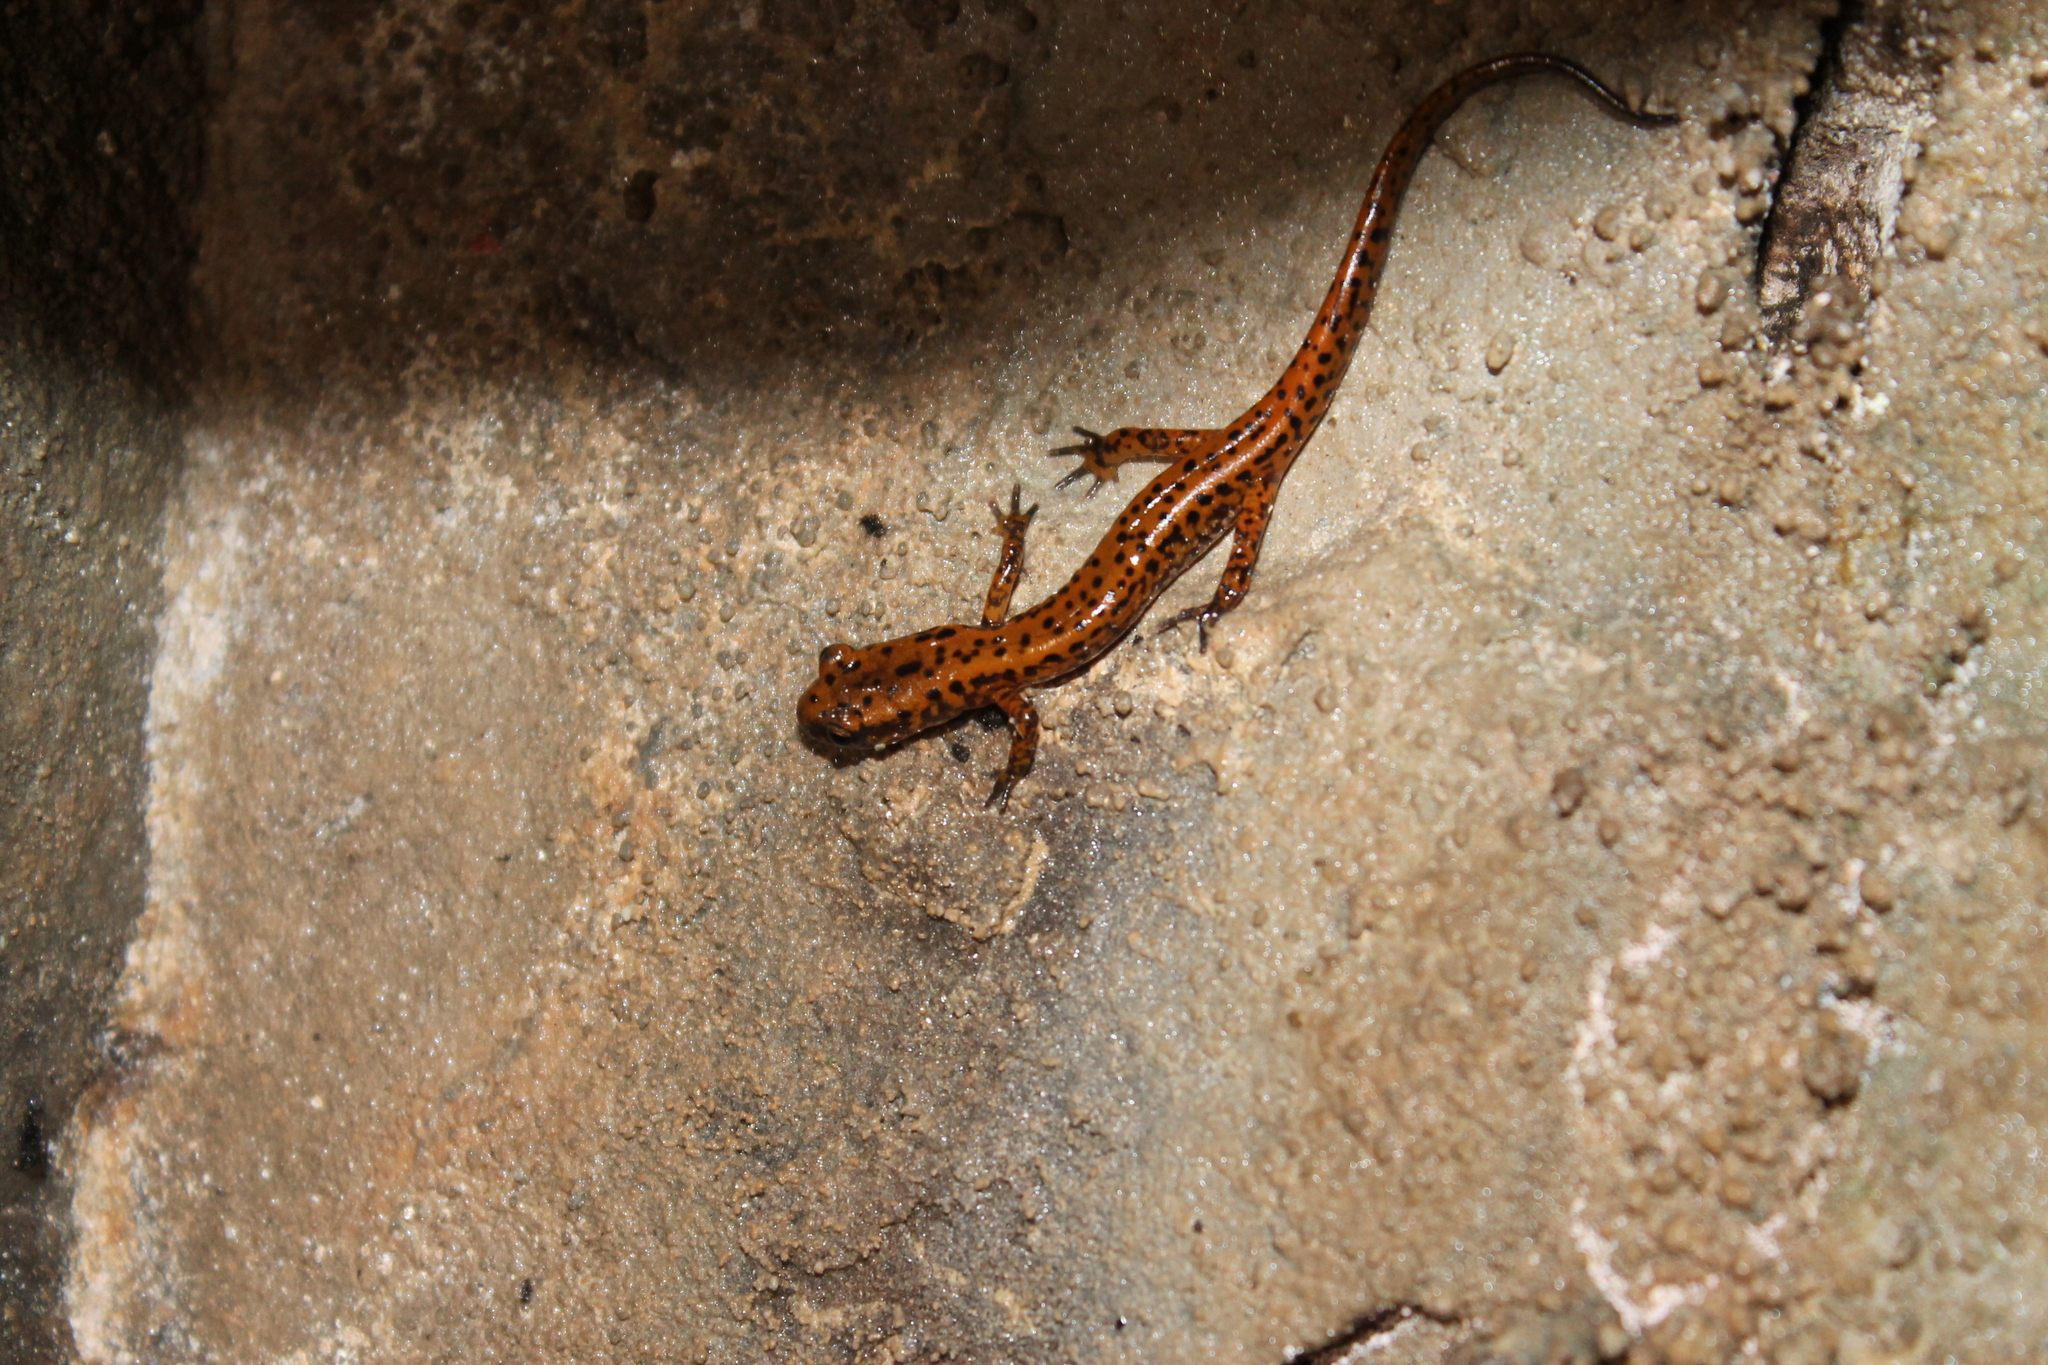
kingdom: Animalia
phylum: Chordata
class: Amphibia
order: Caudata
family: Plethodontidae
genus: Eurycea
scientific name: Eurycea lucifuga
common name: Cave salamander
